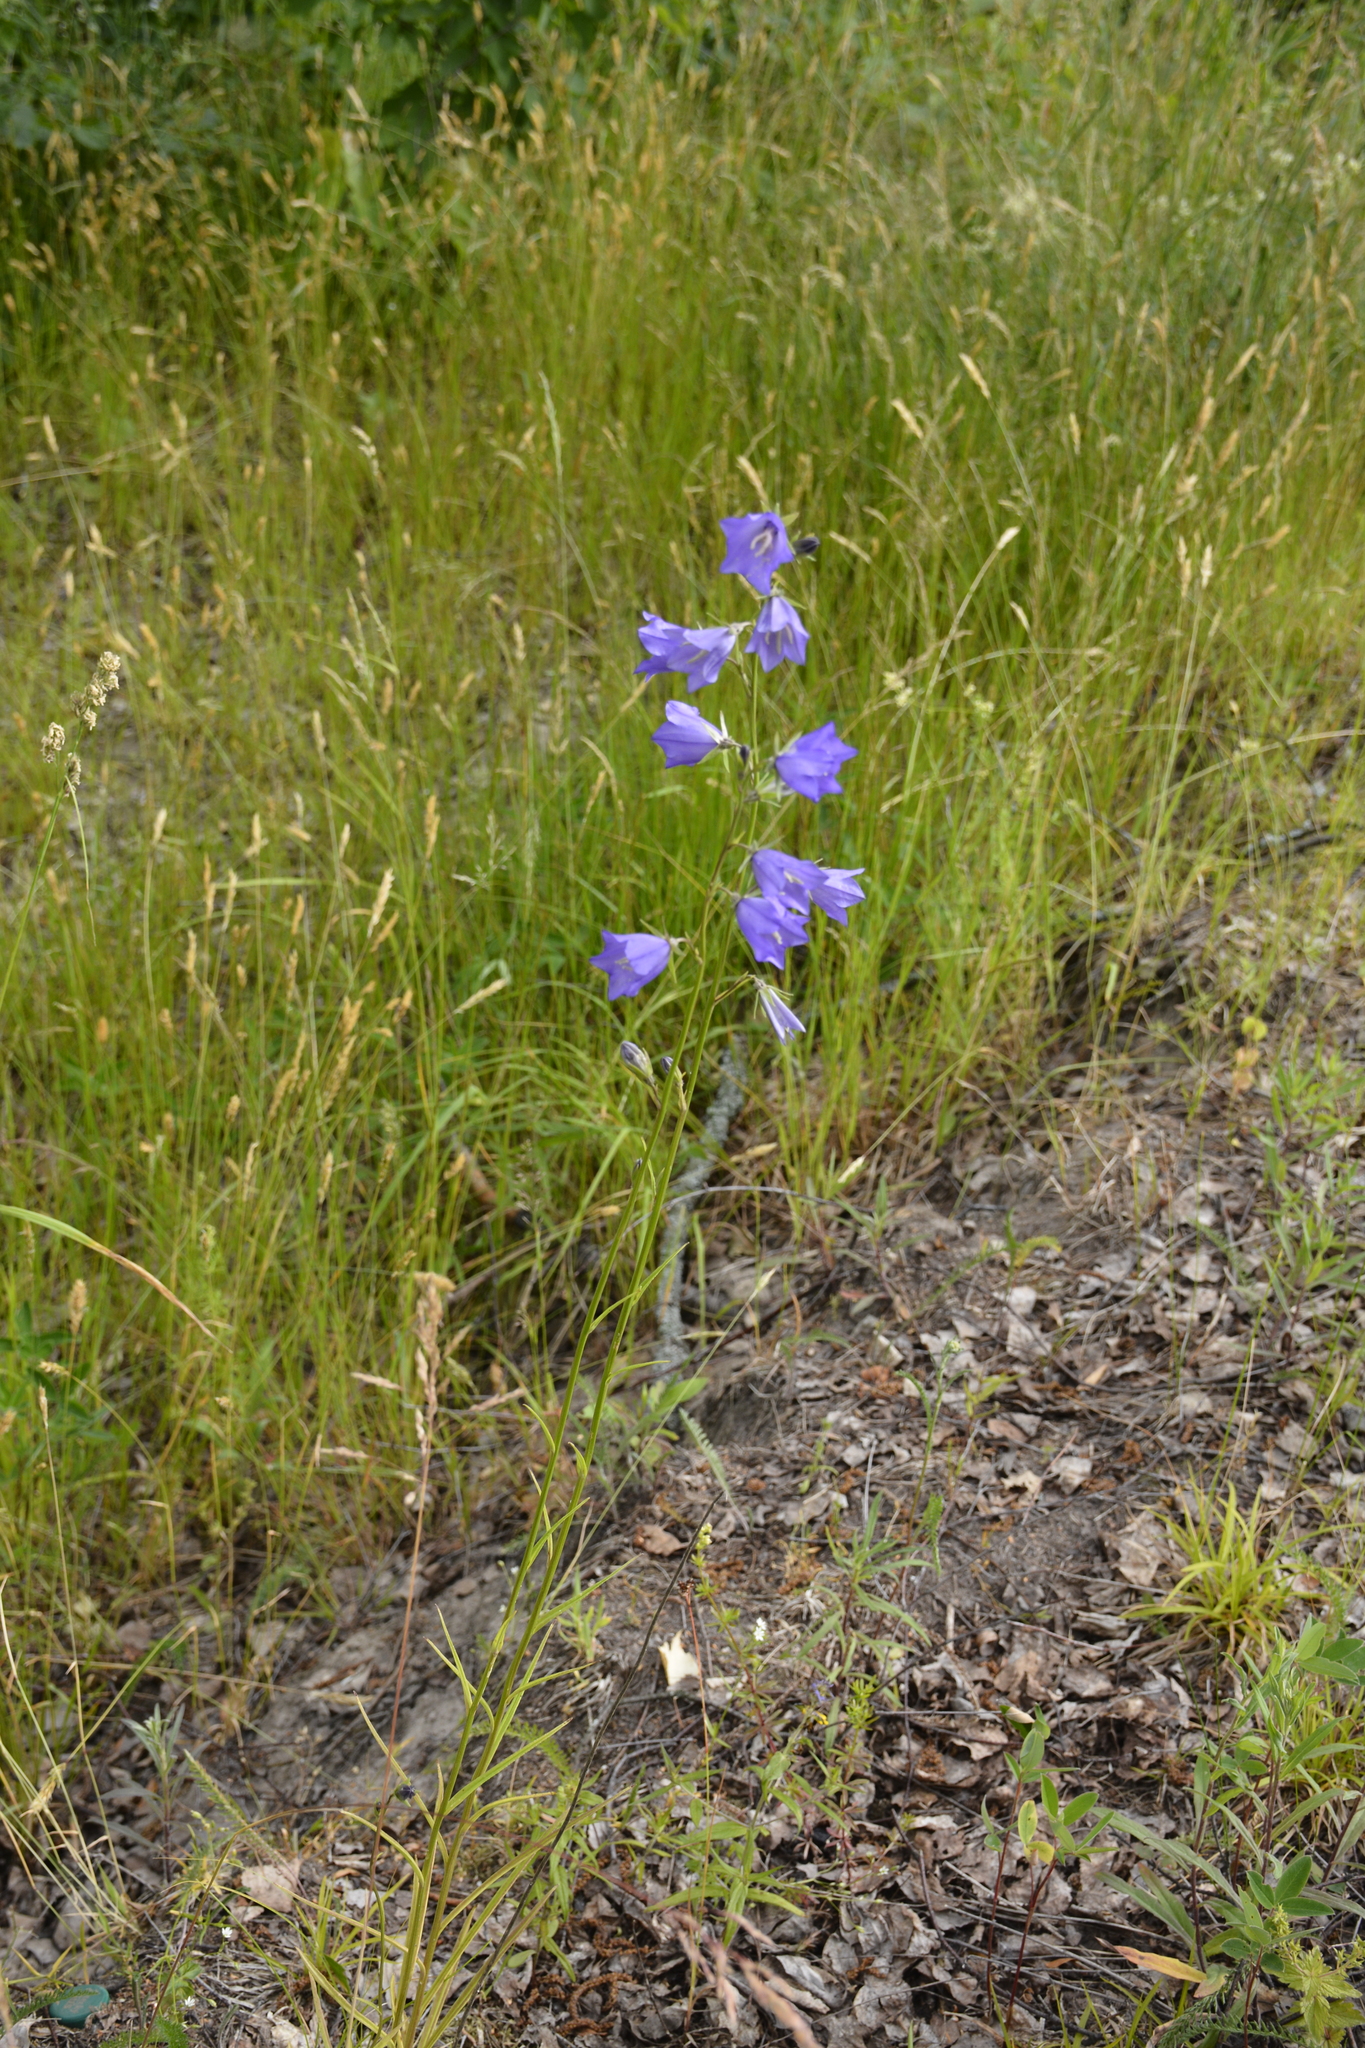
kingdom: Plantae
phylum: Tracheophyta
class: Magnoliopsida
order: Asterales
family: Campanulaceae
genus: Campanula
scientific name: Campanula persicifolia
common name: Peach-leaved bellflower
